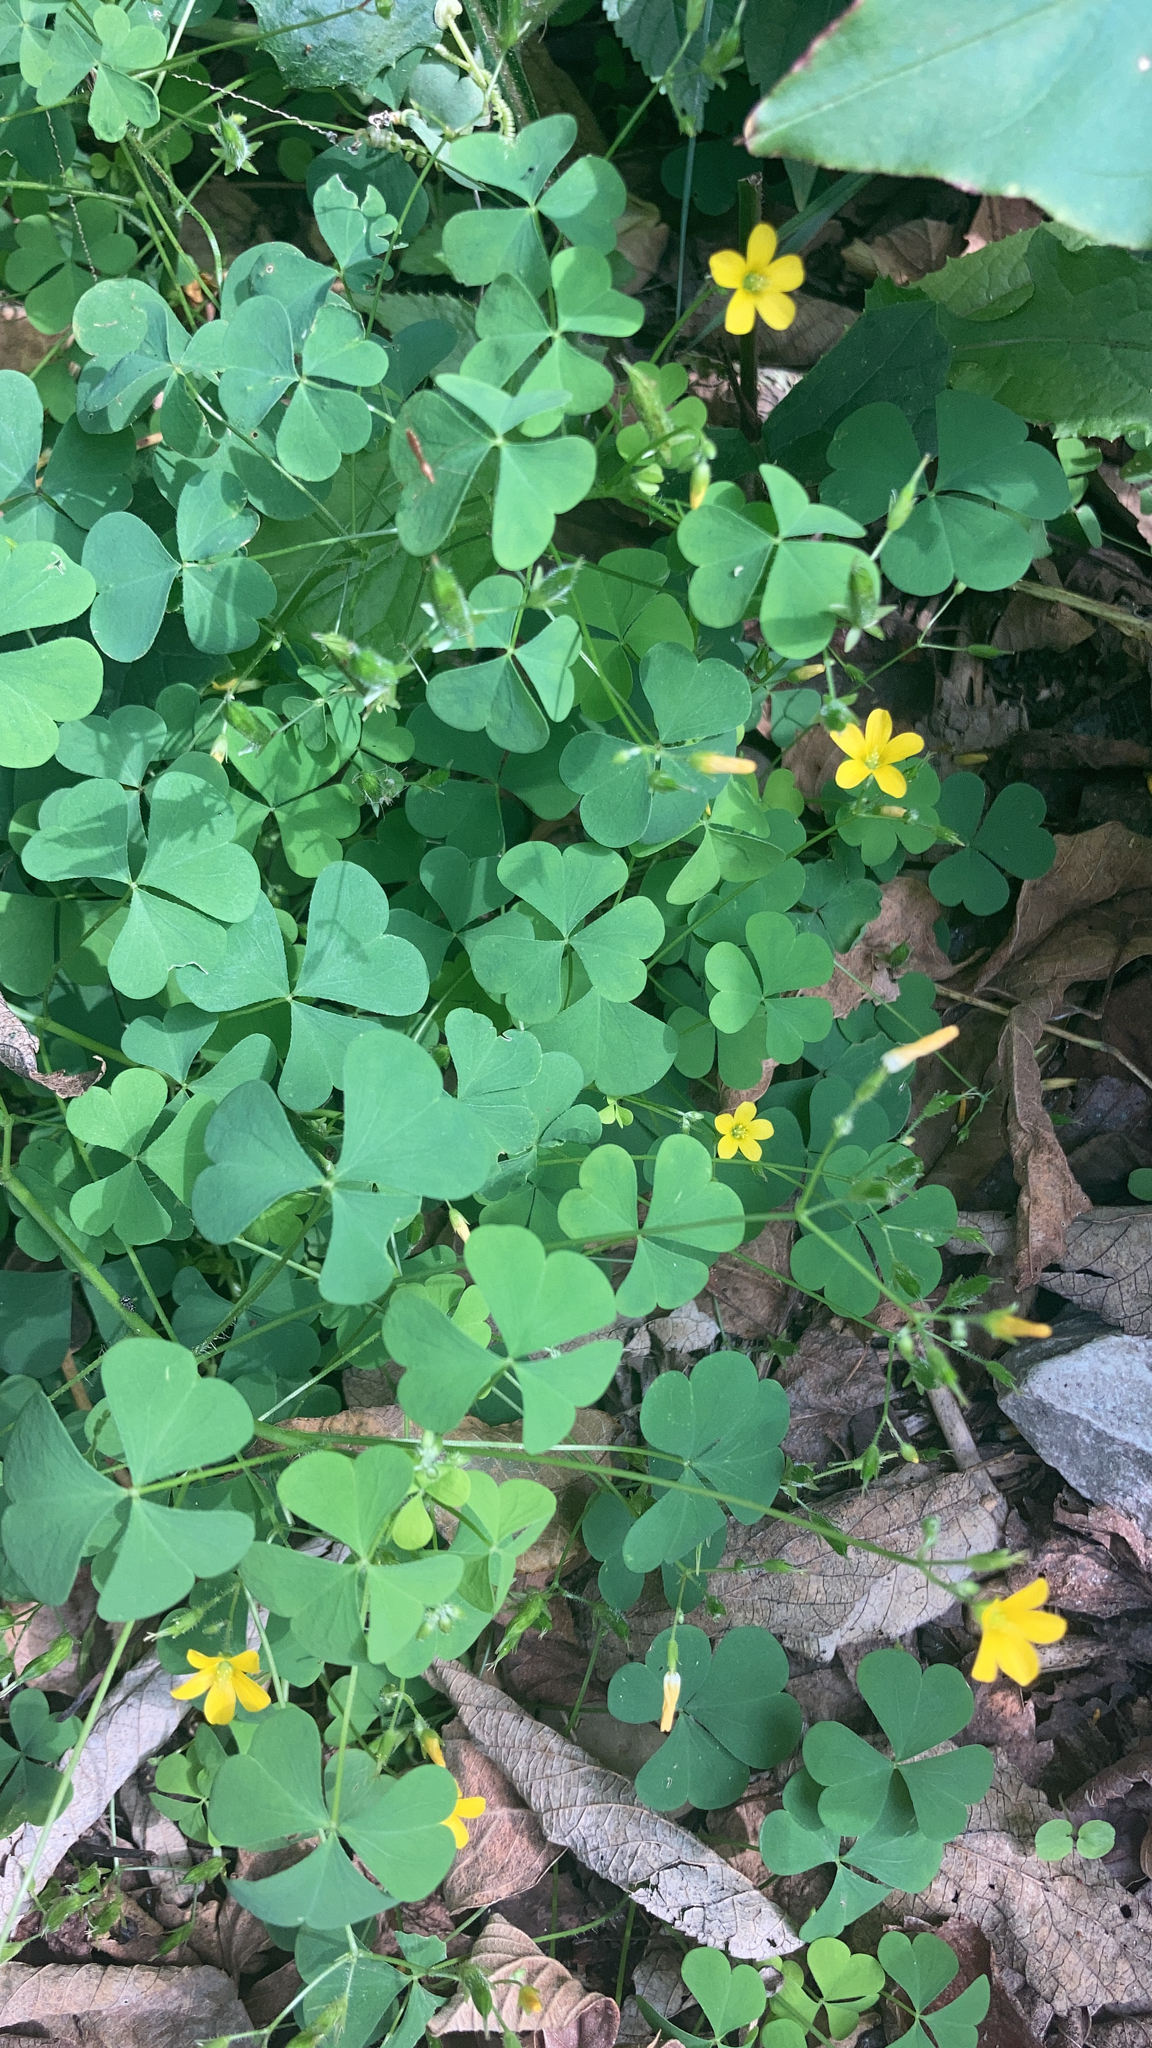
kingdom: Plantae
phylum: Tracheophyta
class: Magnoliopsida
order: Oxalidales
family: Oxalidaceae
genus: Oxalis
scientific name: Oxalis stricta
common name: Upright yellow-sorrel
